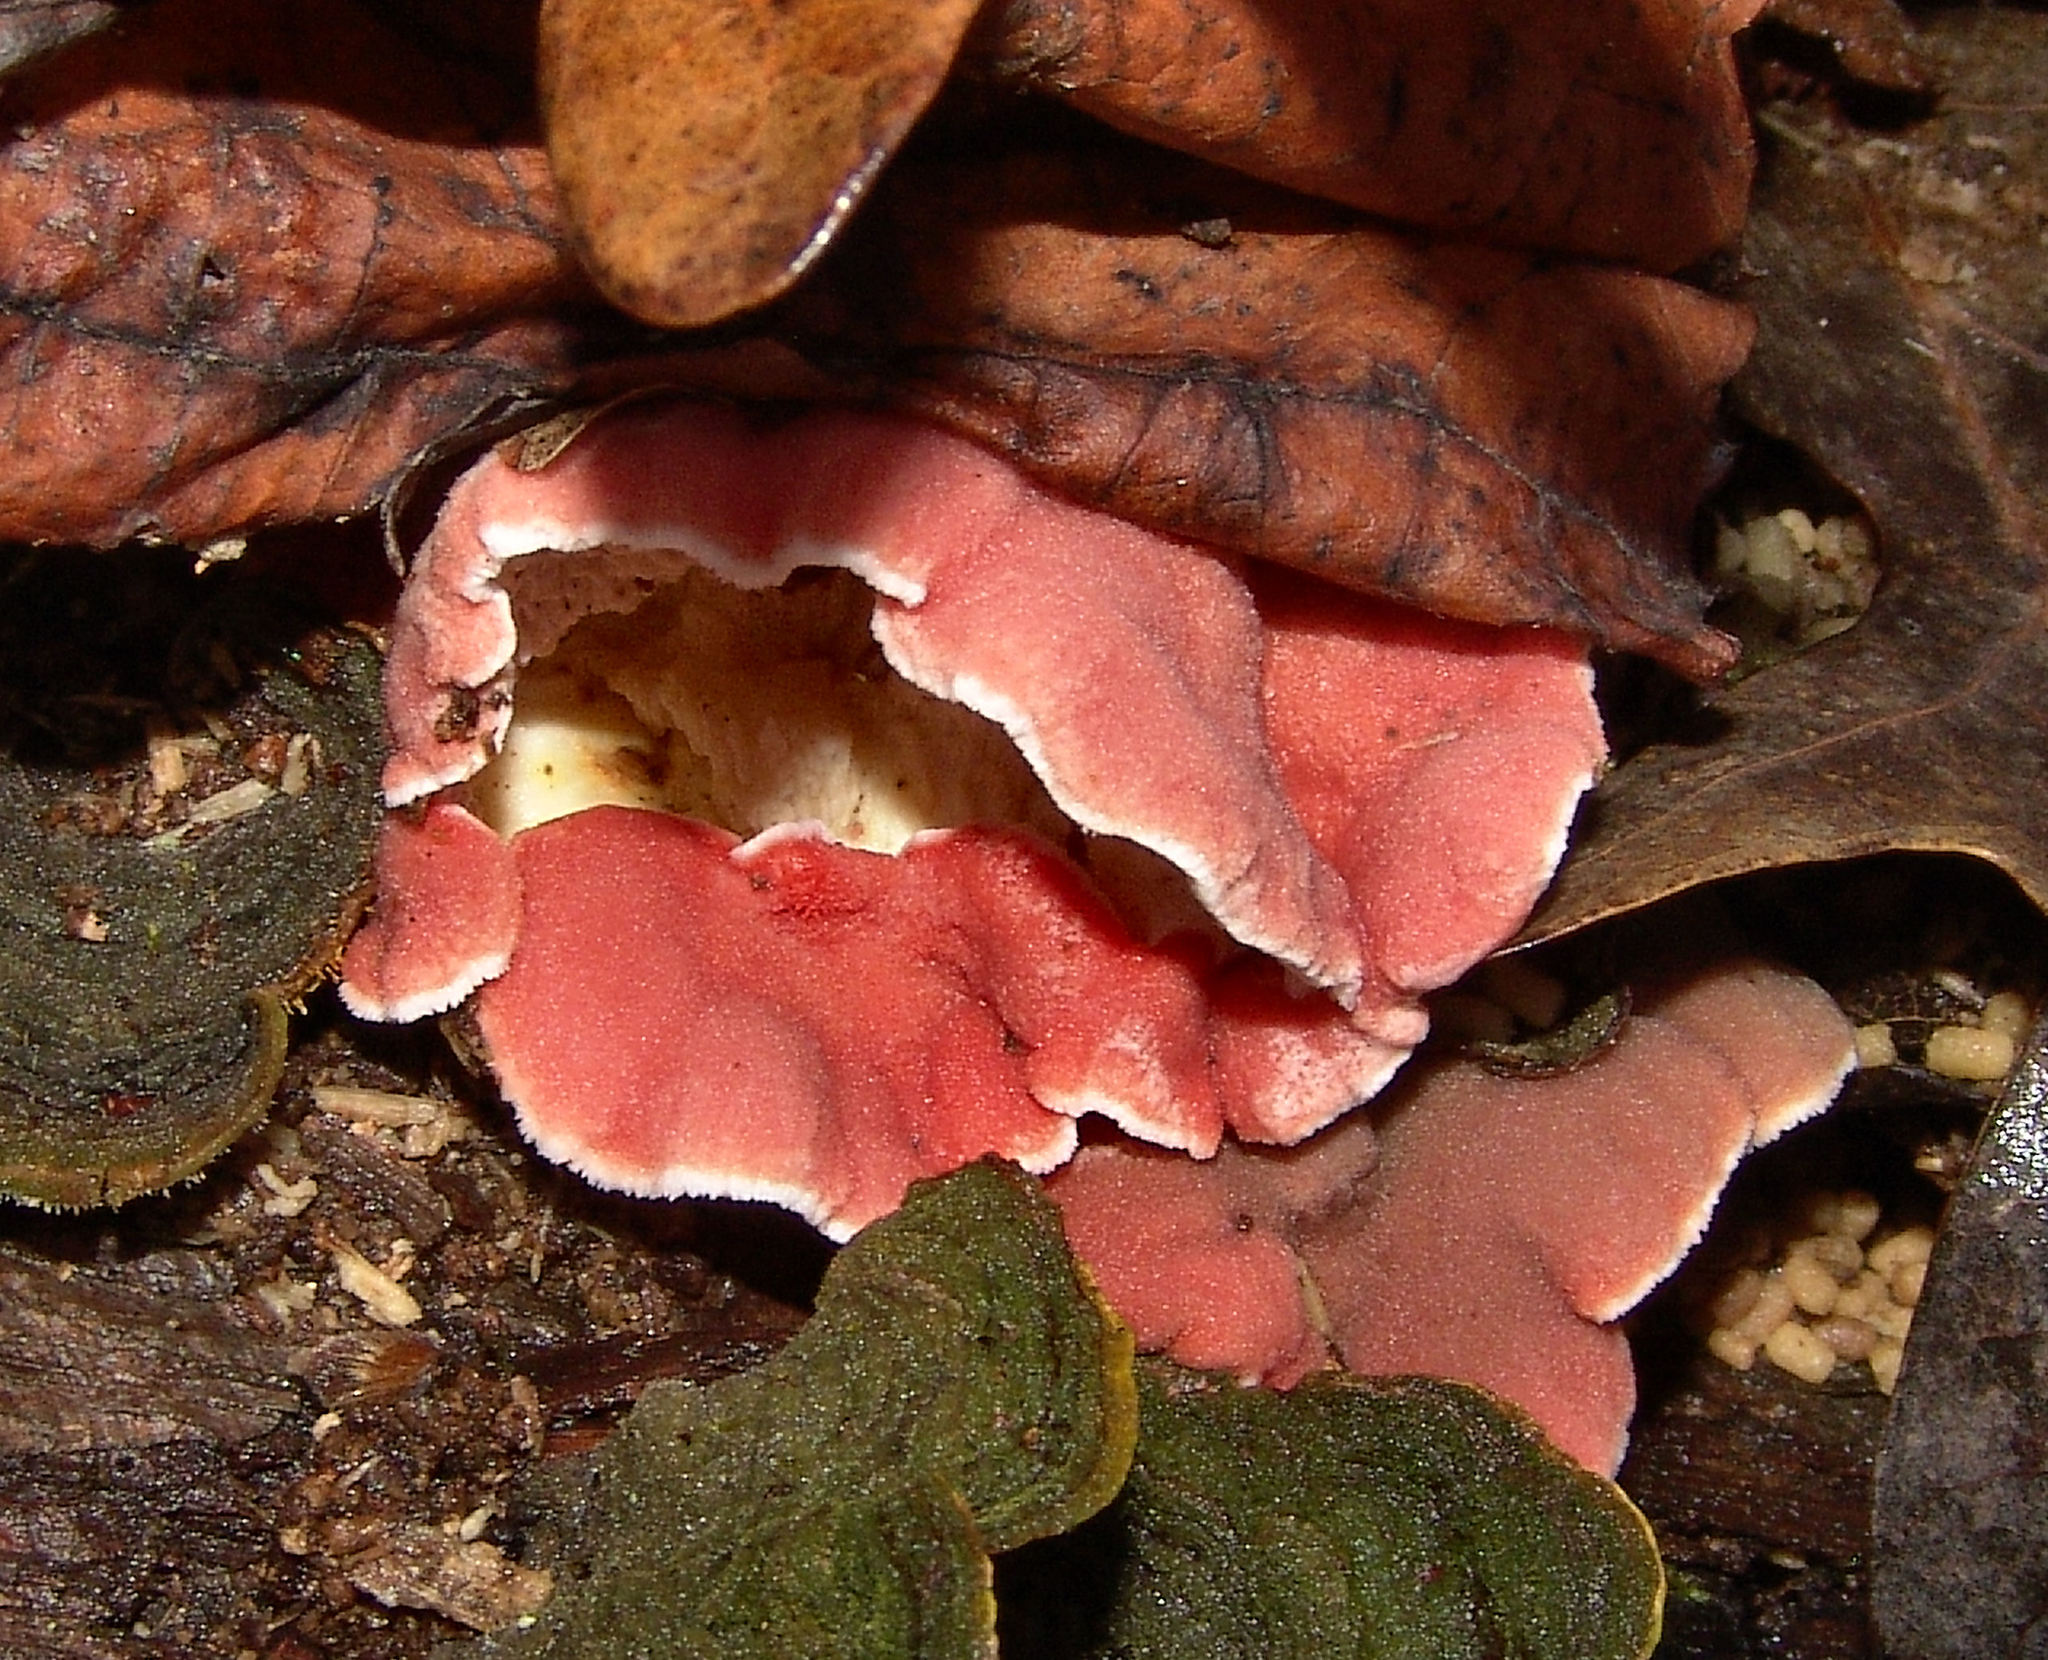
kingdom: Fungi
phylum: Basidiomycota
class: Agaricomycetes
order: Polyporales
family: Irpicaceae
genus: Byssomerulius
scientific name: Byssomerulius incarnatus
